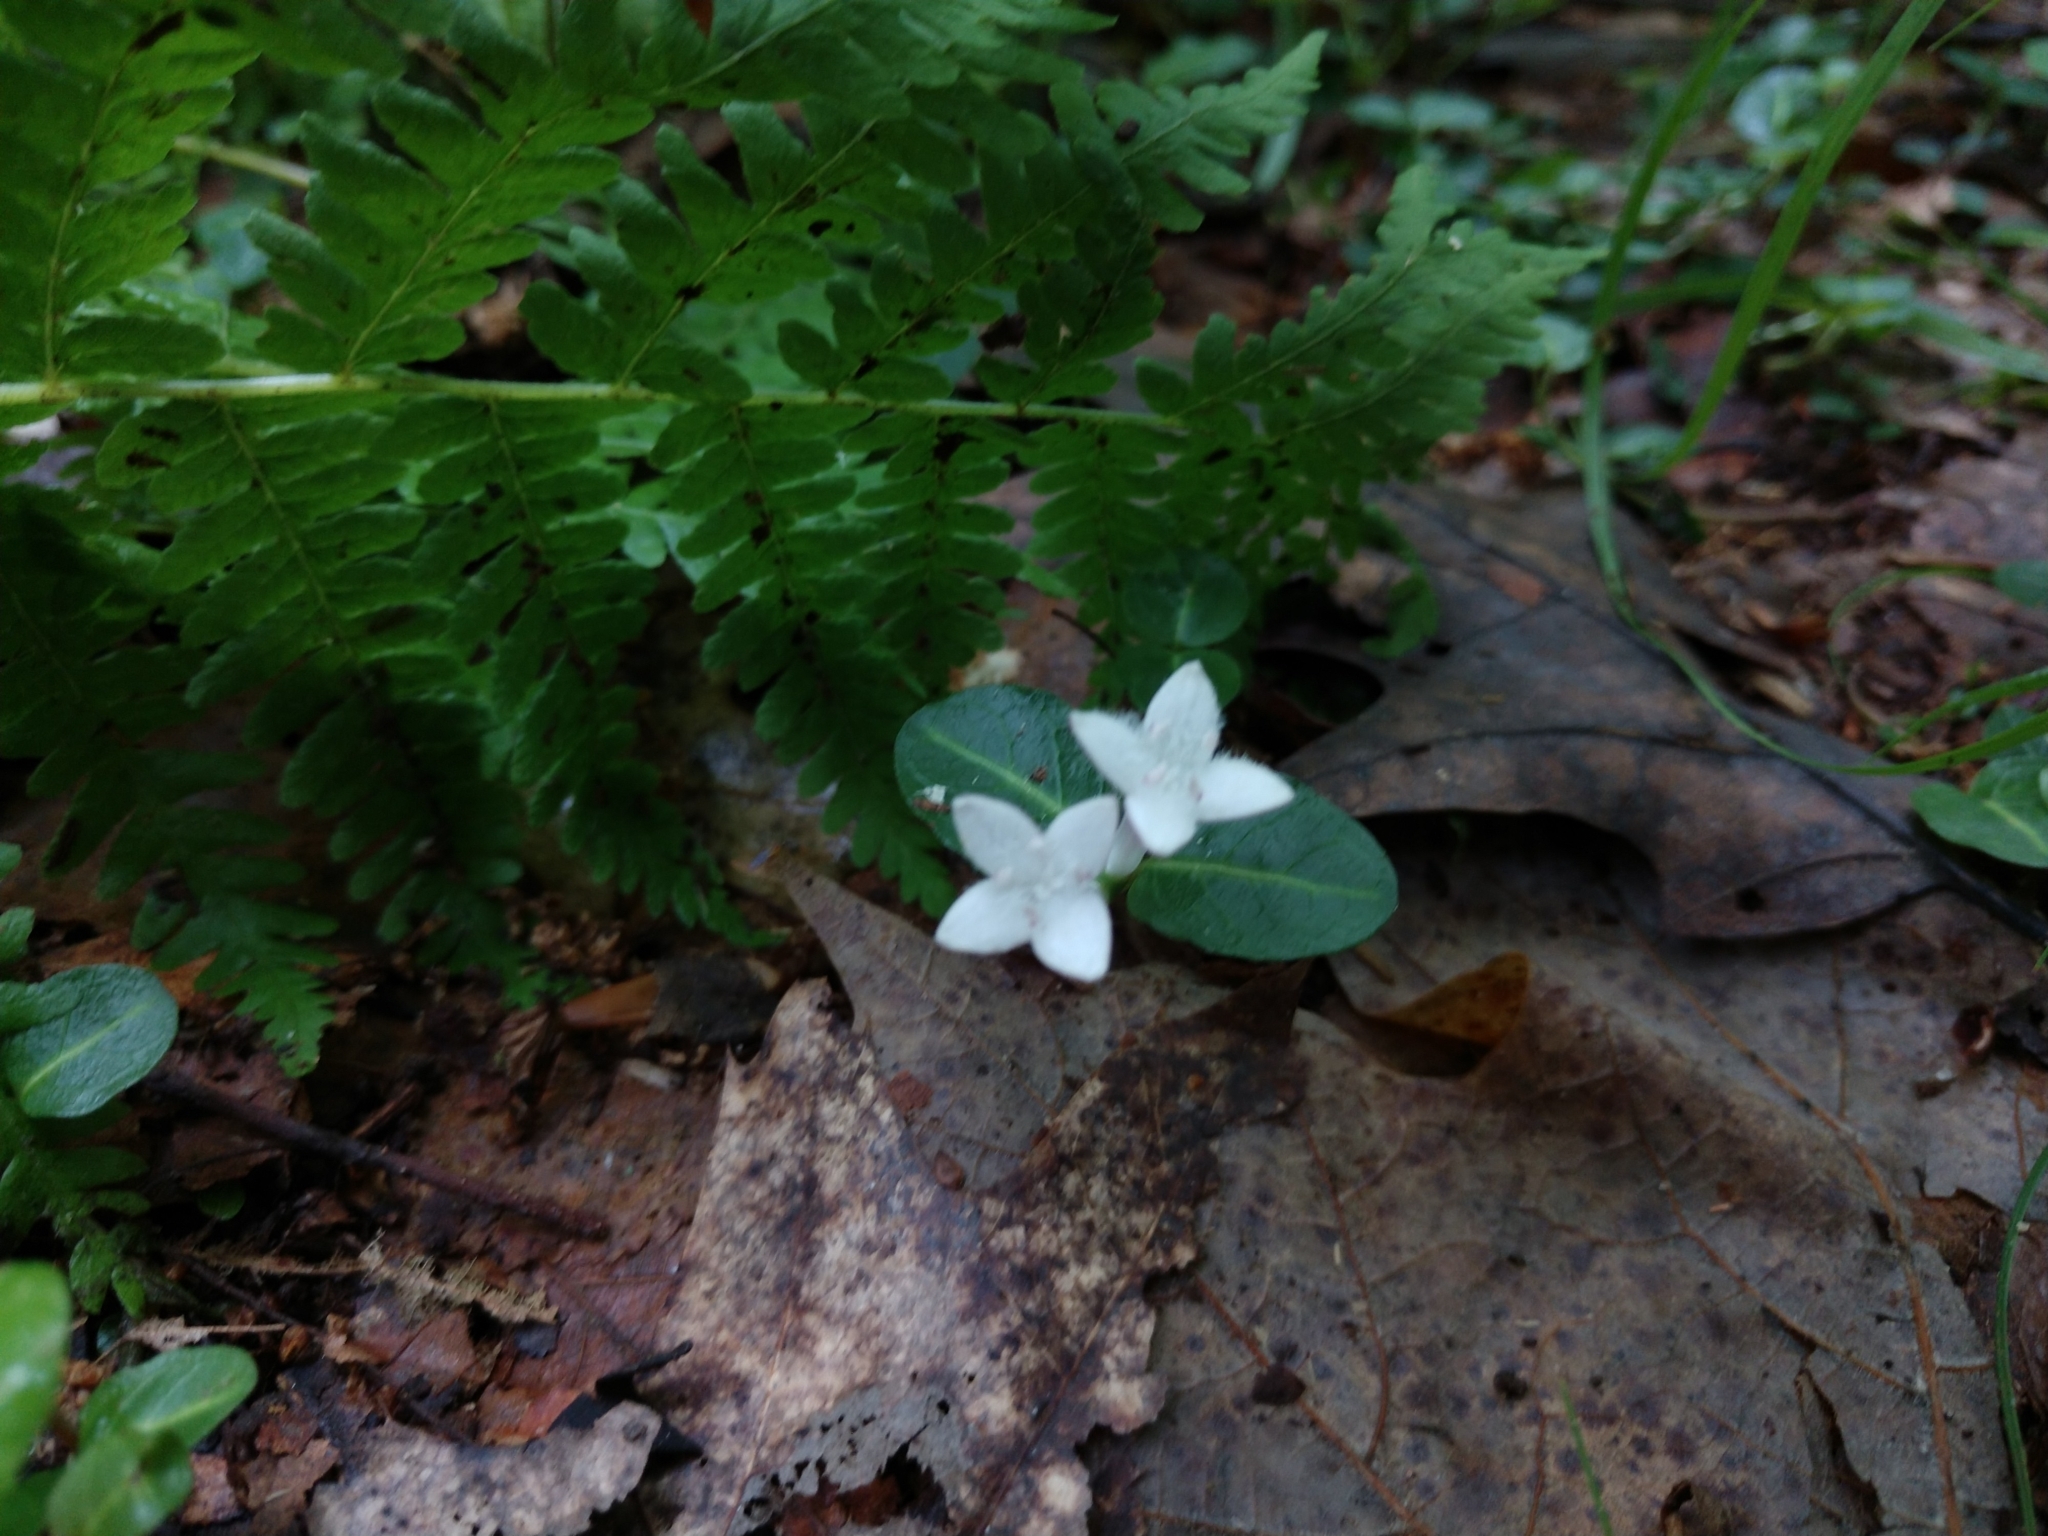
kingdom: Plantae
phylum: Tracheophyta
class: Magnoliopsida
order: Gentianales
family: Rubiaceae
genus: Mitchella
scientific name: Mitchella repens
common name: Partridge-berry
